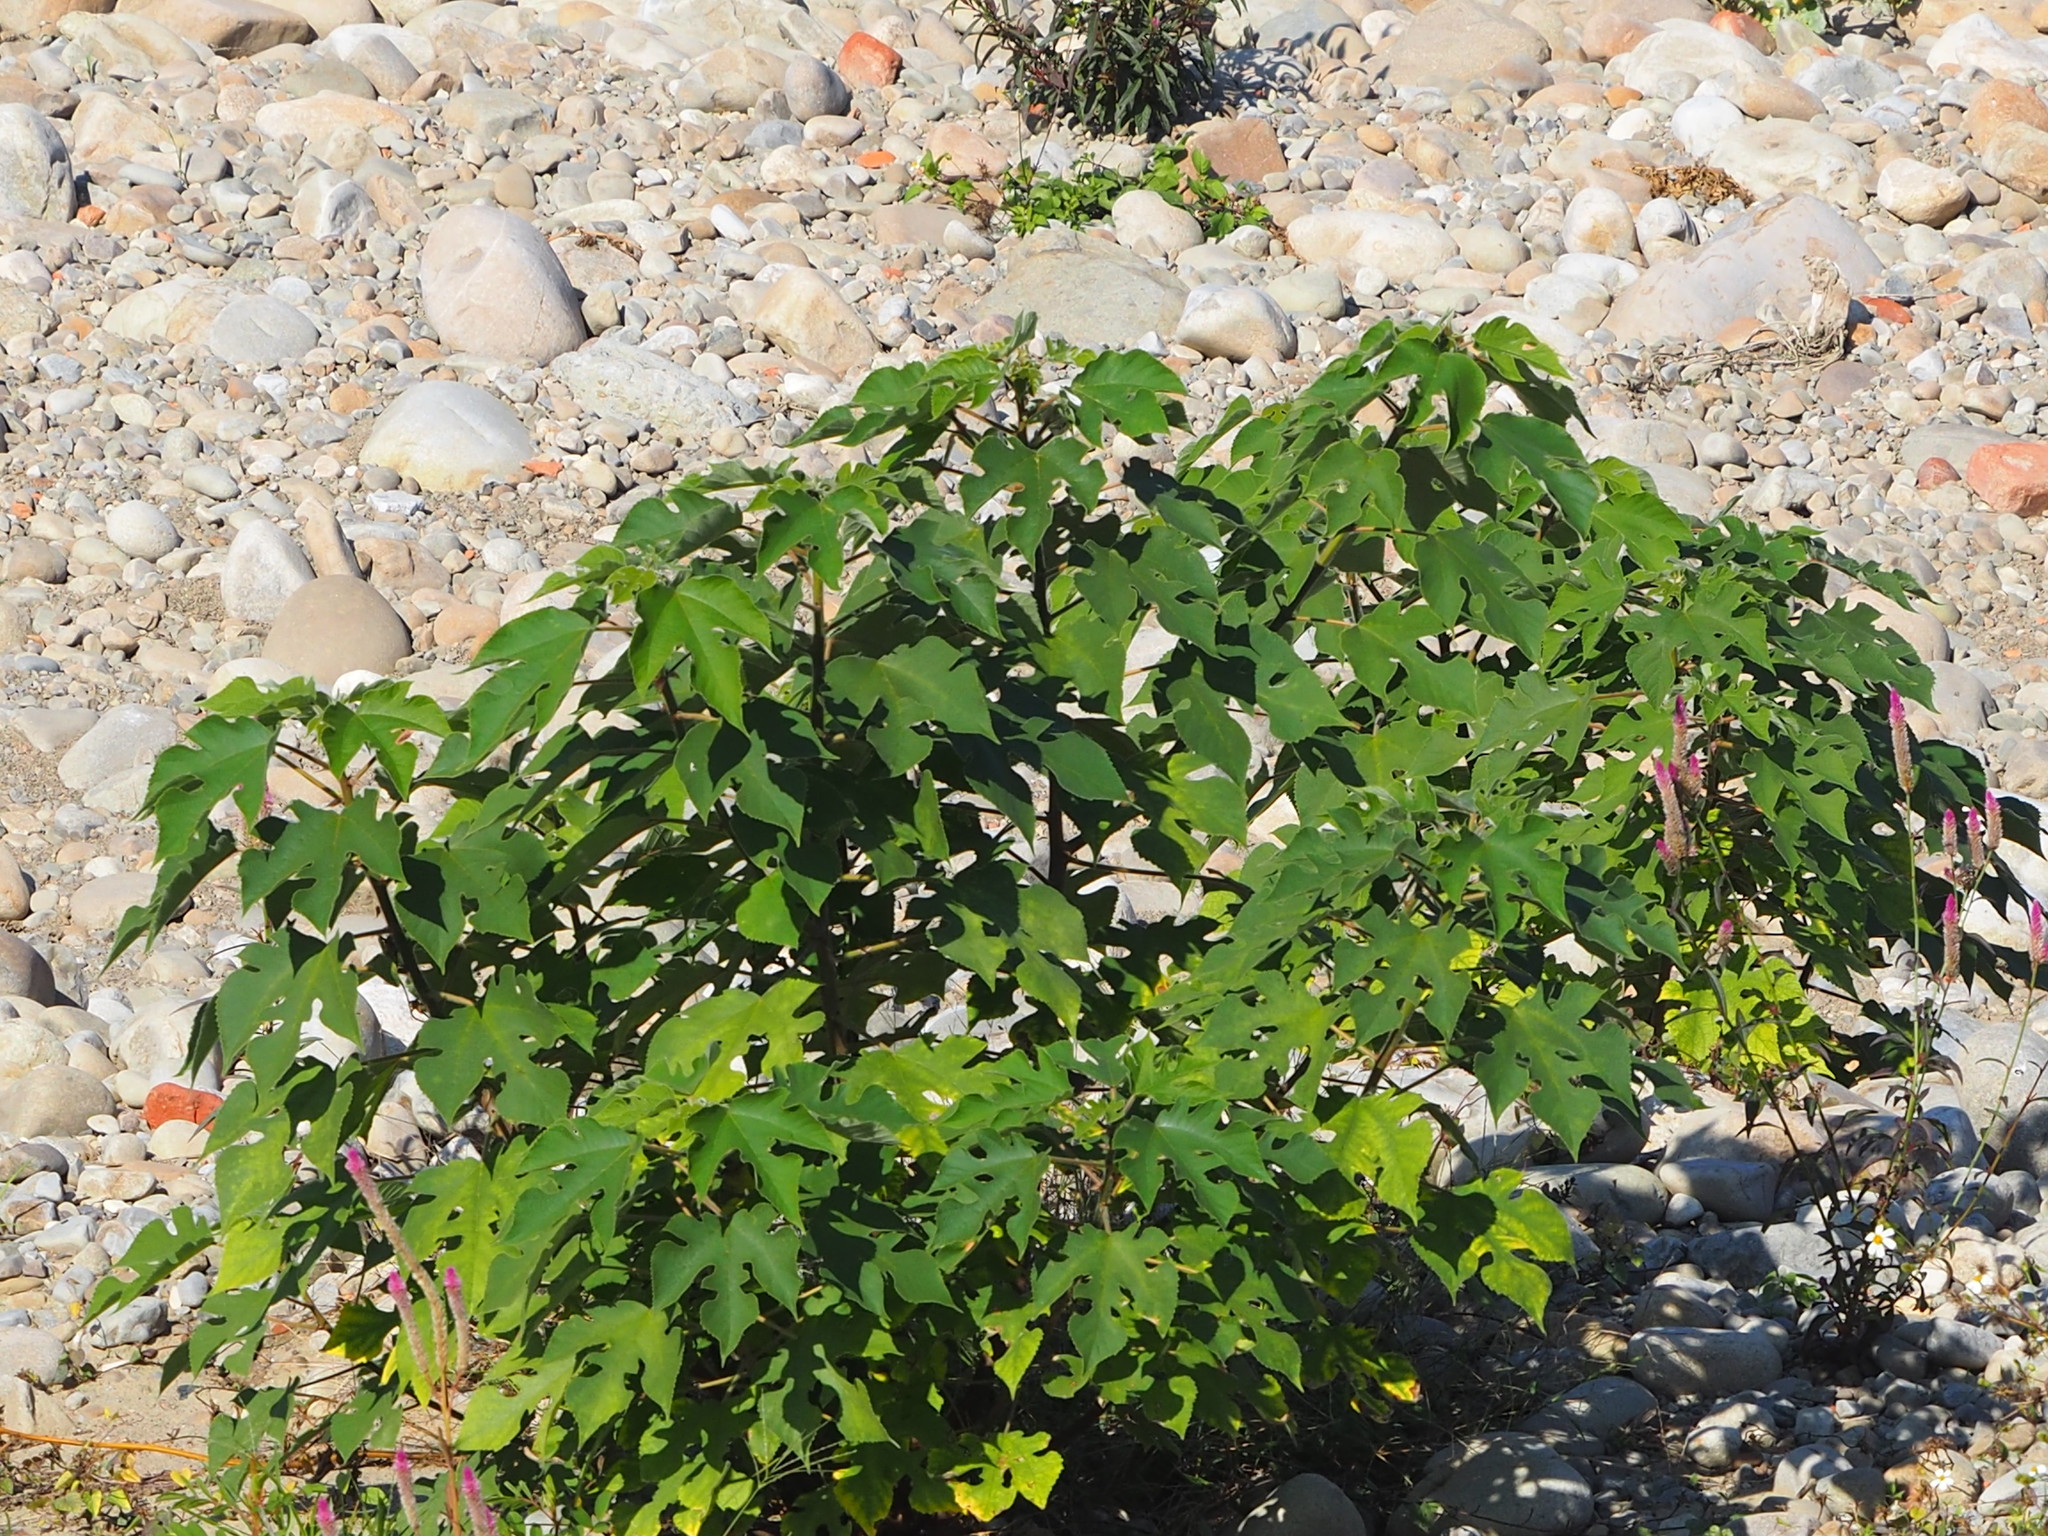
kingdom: Plantae
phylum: Tracheophyta
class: Magnoliopsida
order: Rosales
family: Moraceae
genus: Broussonetia
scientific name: Broussonetia papyrifera
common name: Paper mulberry
